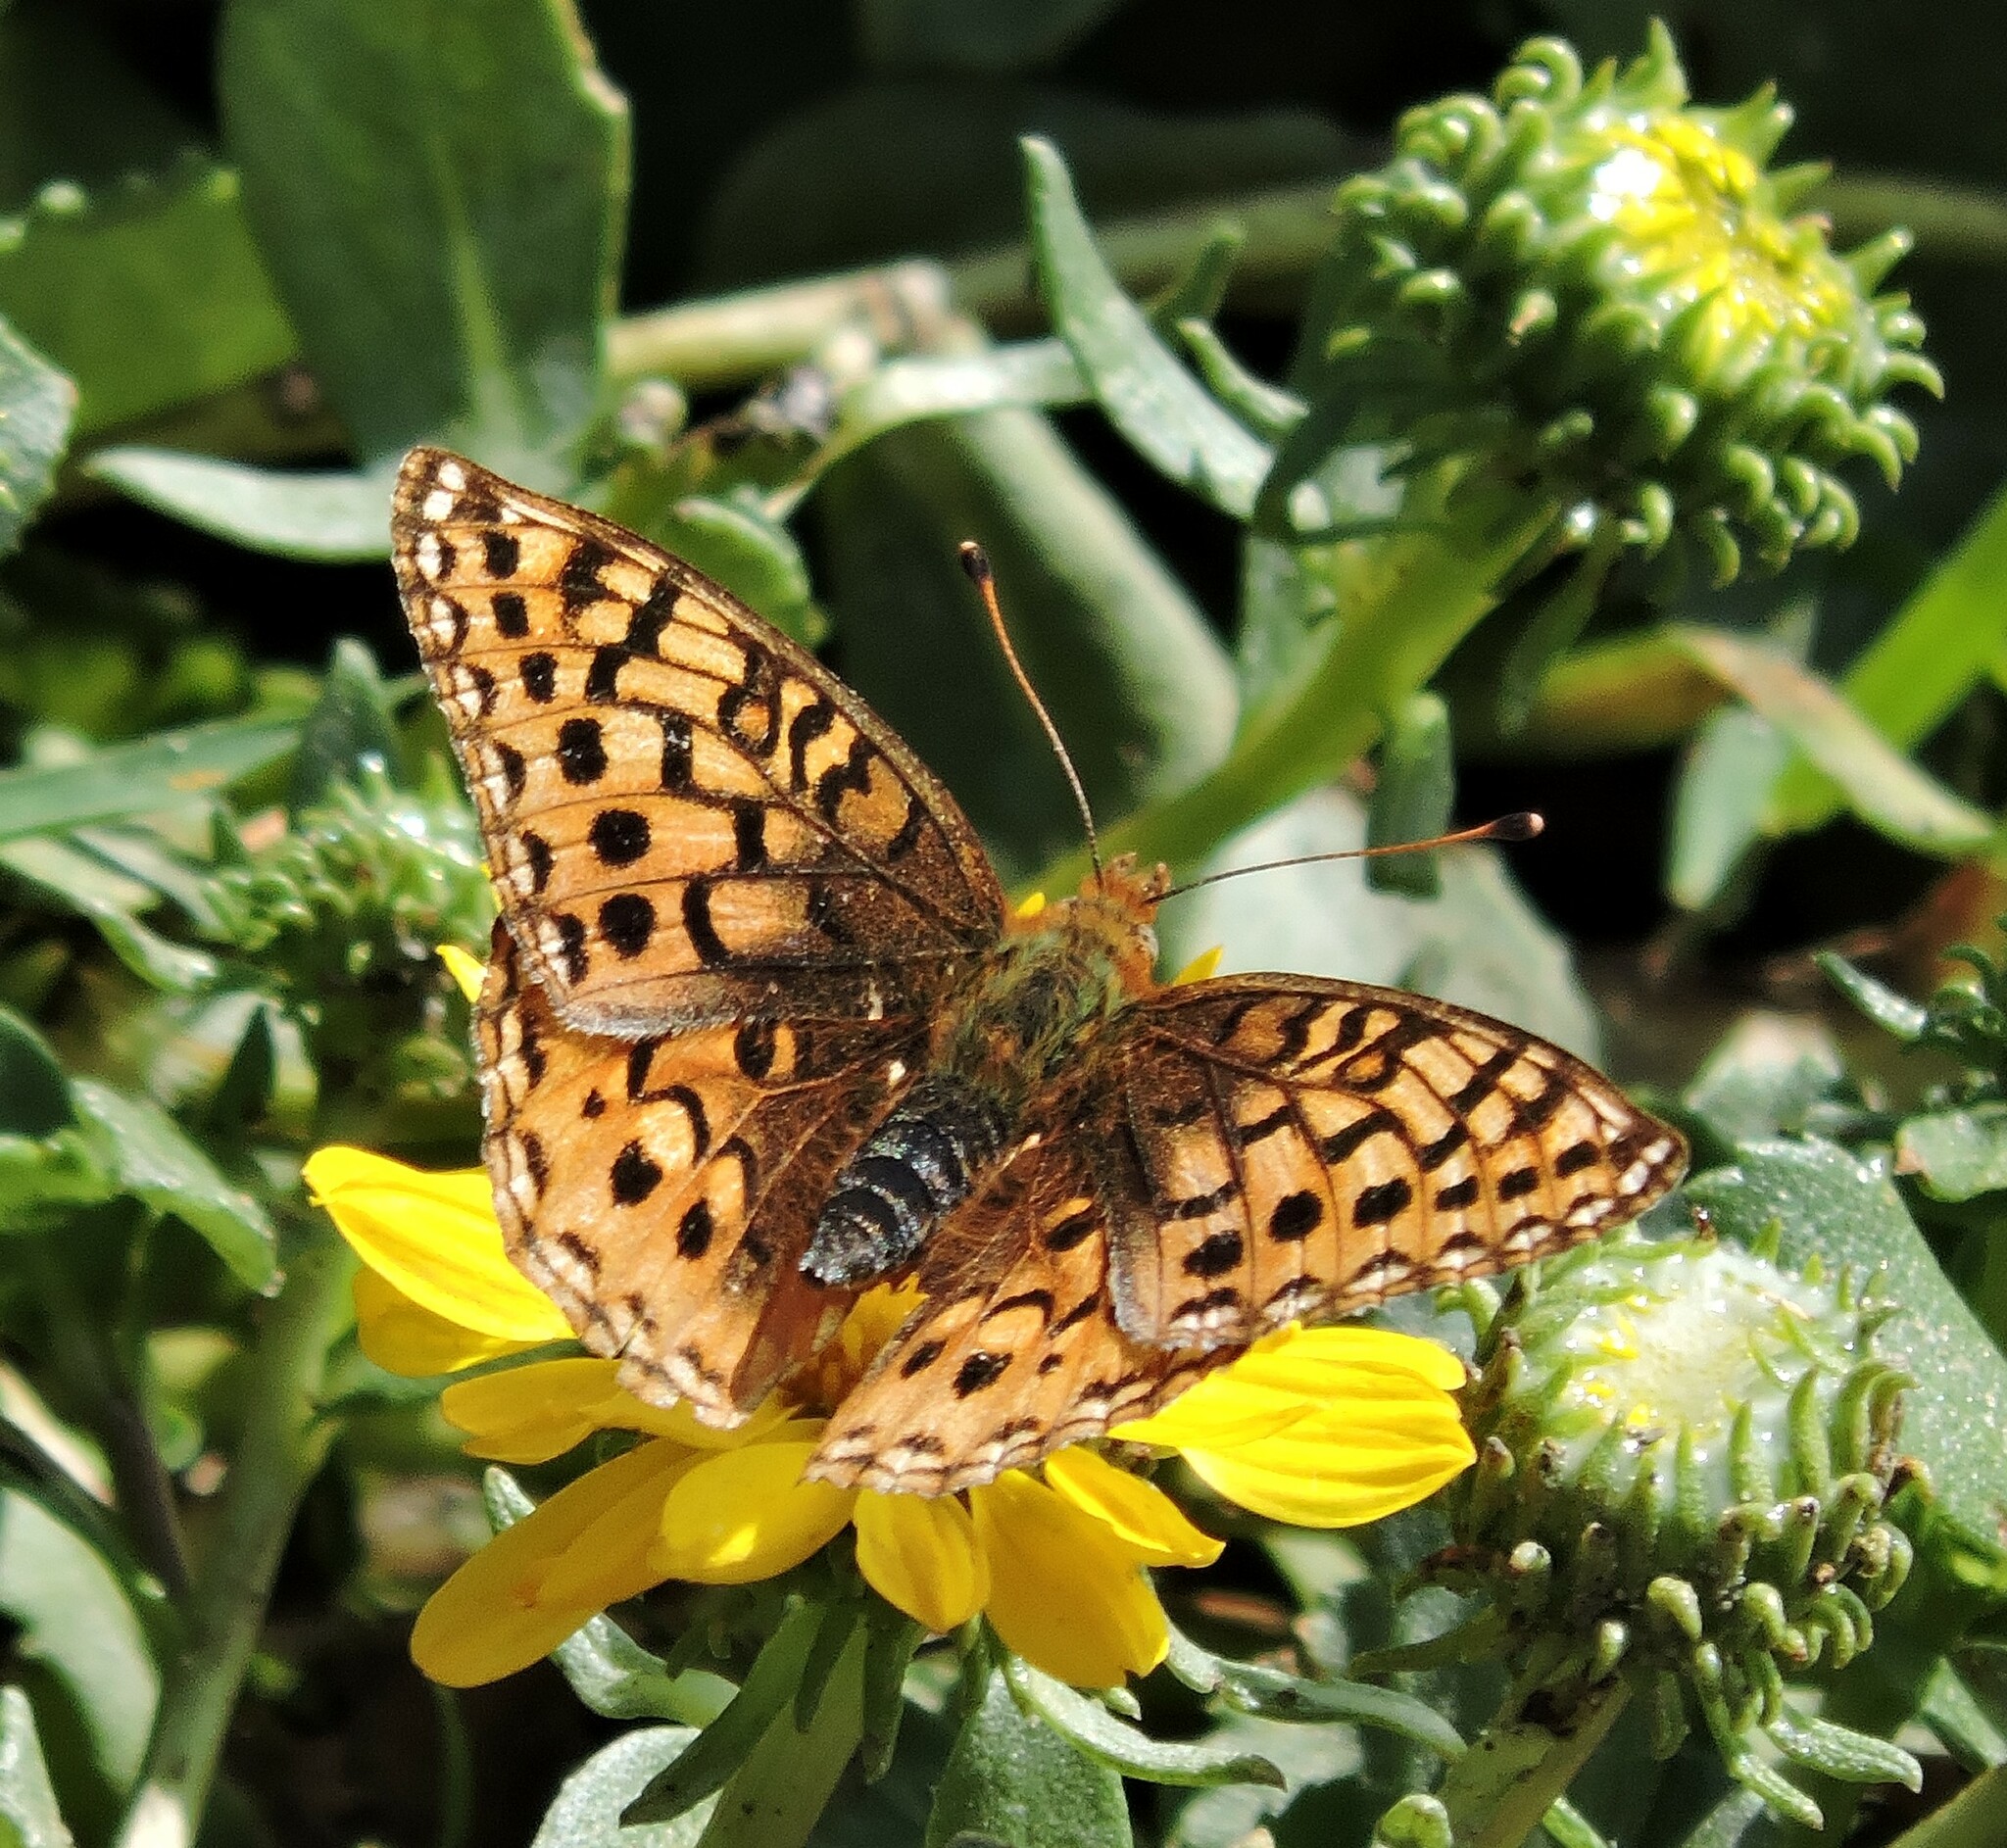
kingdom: Animalia
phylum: Arthropoda
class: Insecta
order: Lepidoptera
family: Nymphalidae
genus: Speyeria
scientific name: Speyeria zerene
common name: Zerene fritillary
